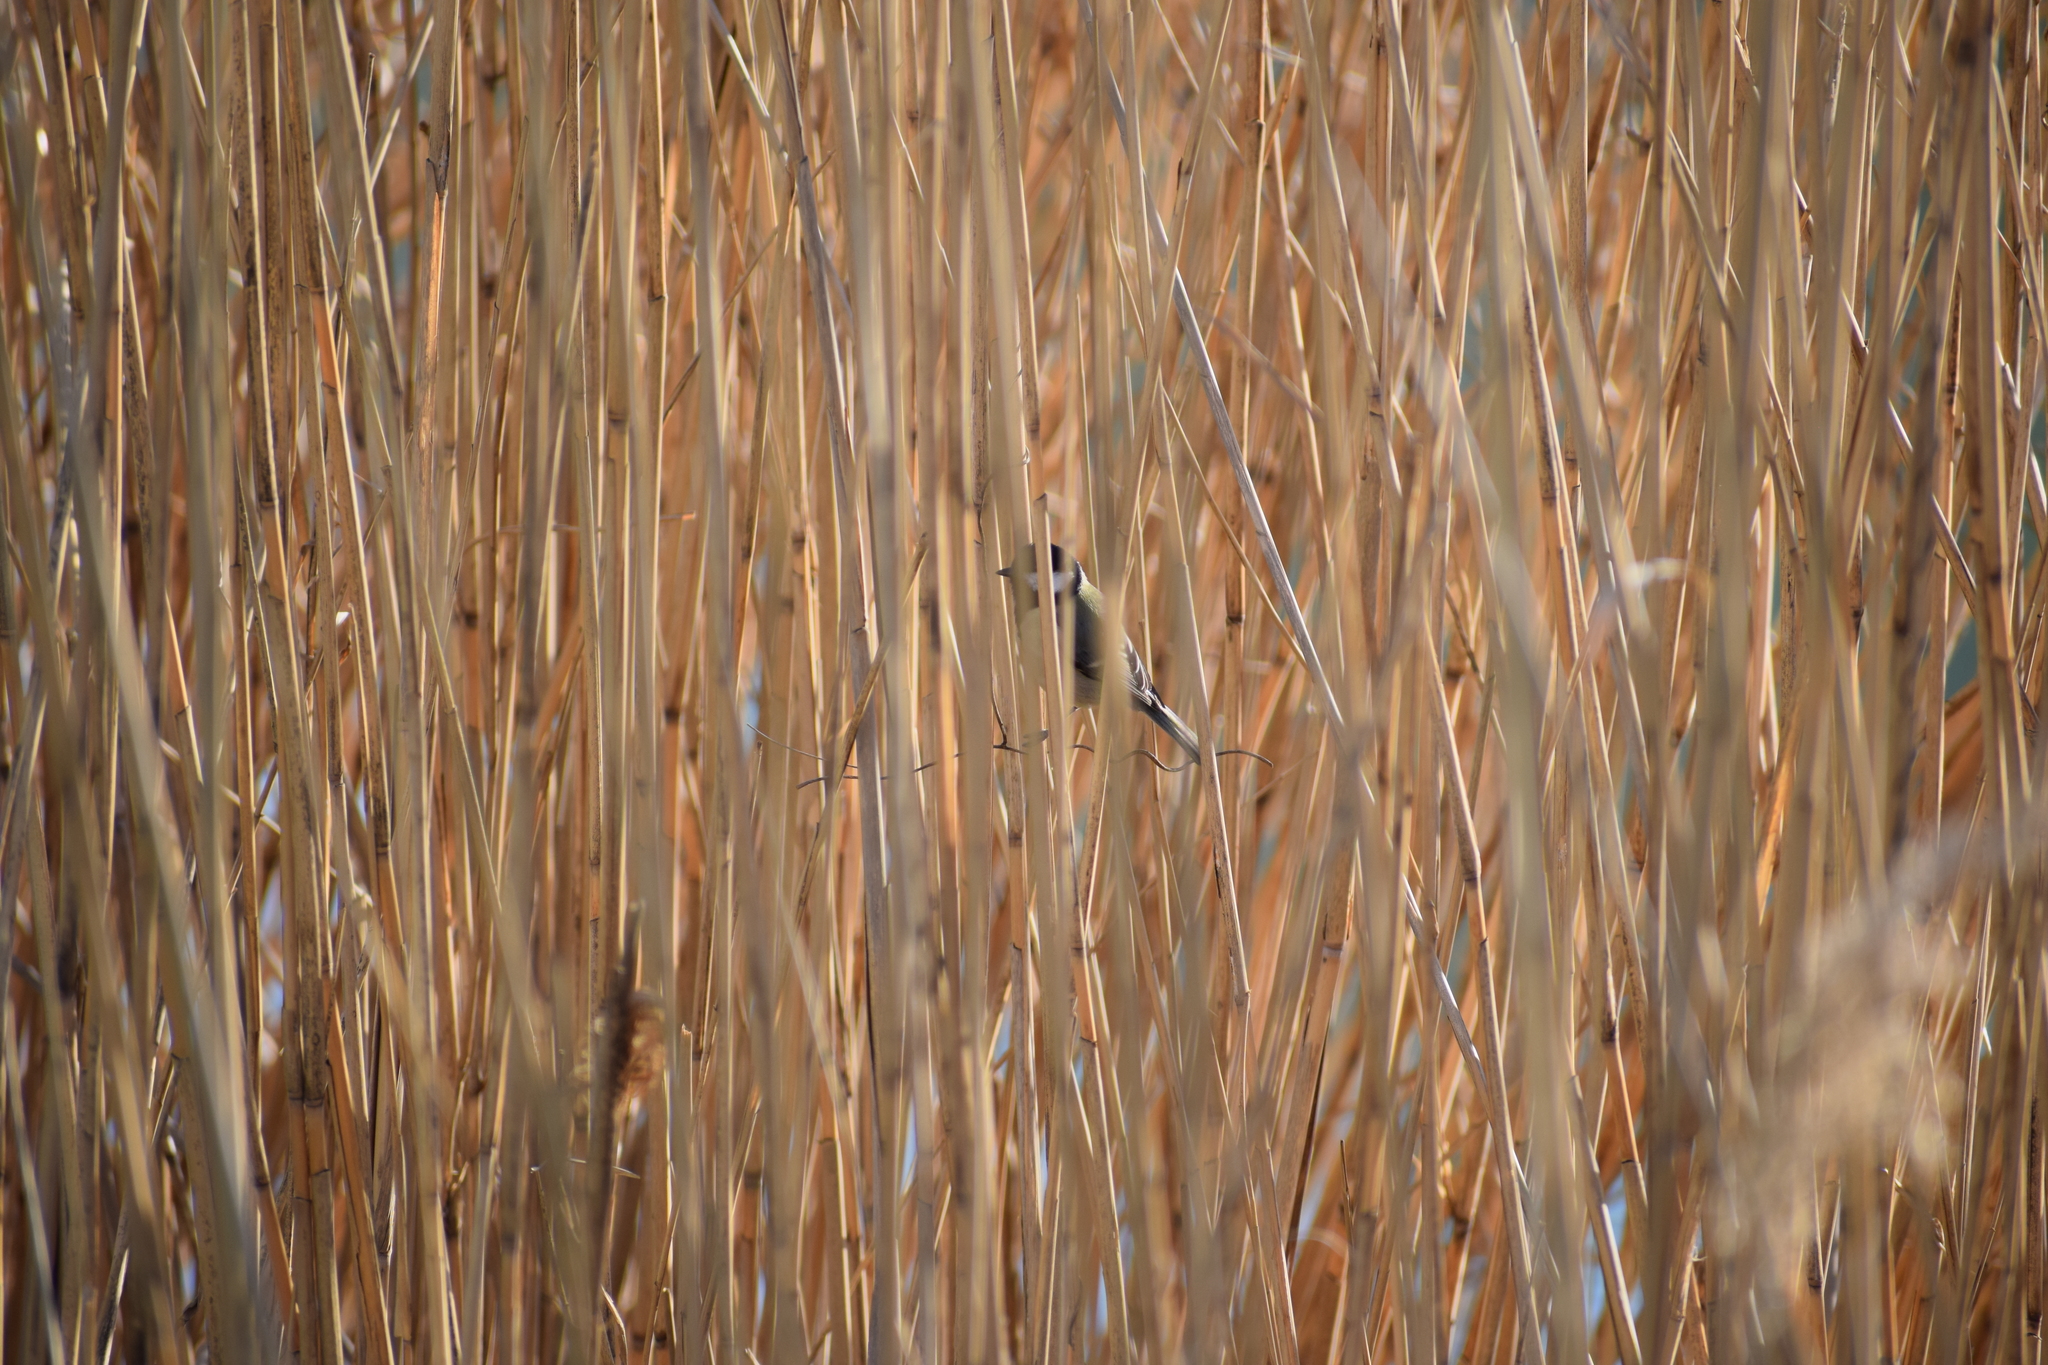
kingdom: Animalia
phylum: Chordata
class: Aves
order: Passeriformes
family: Paridae
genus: Parus
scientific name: Parus major
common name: Great tit
